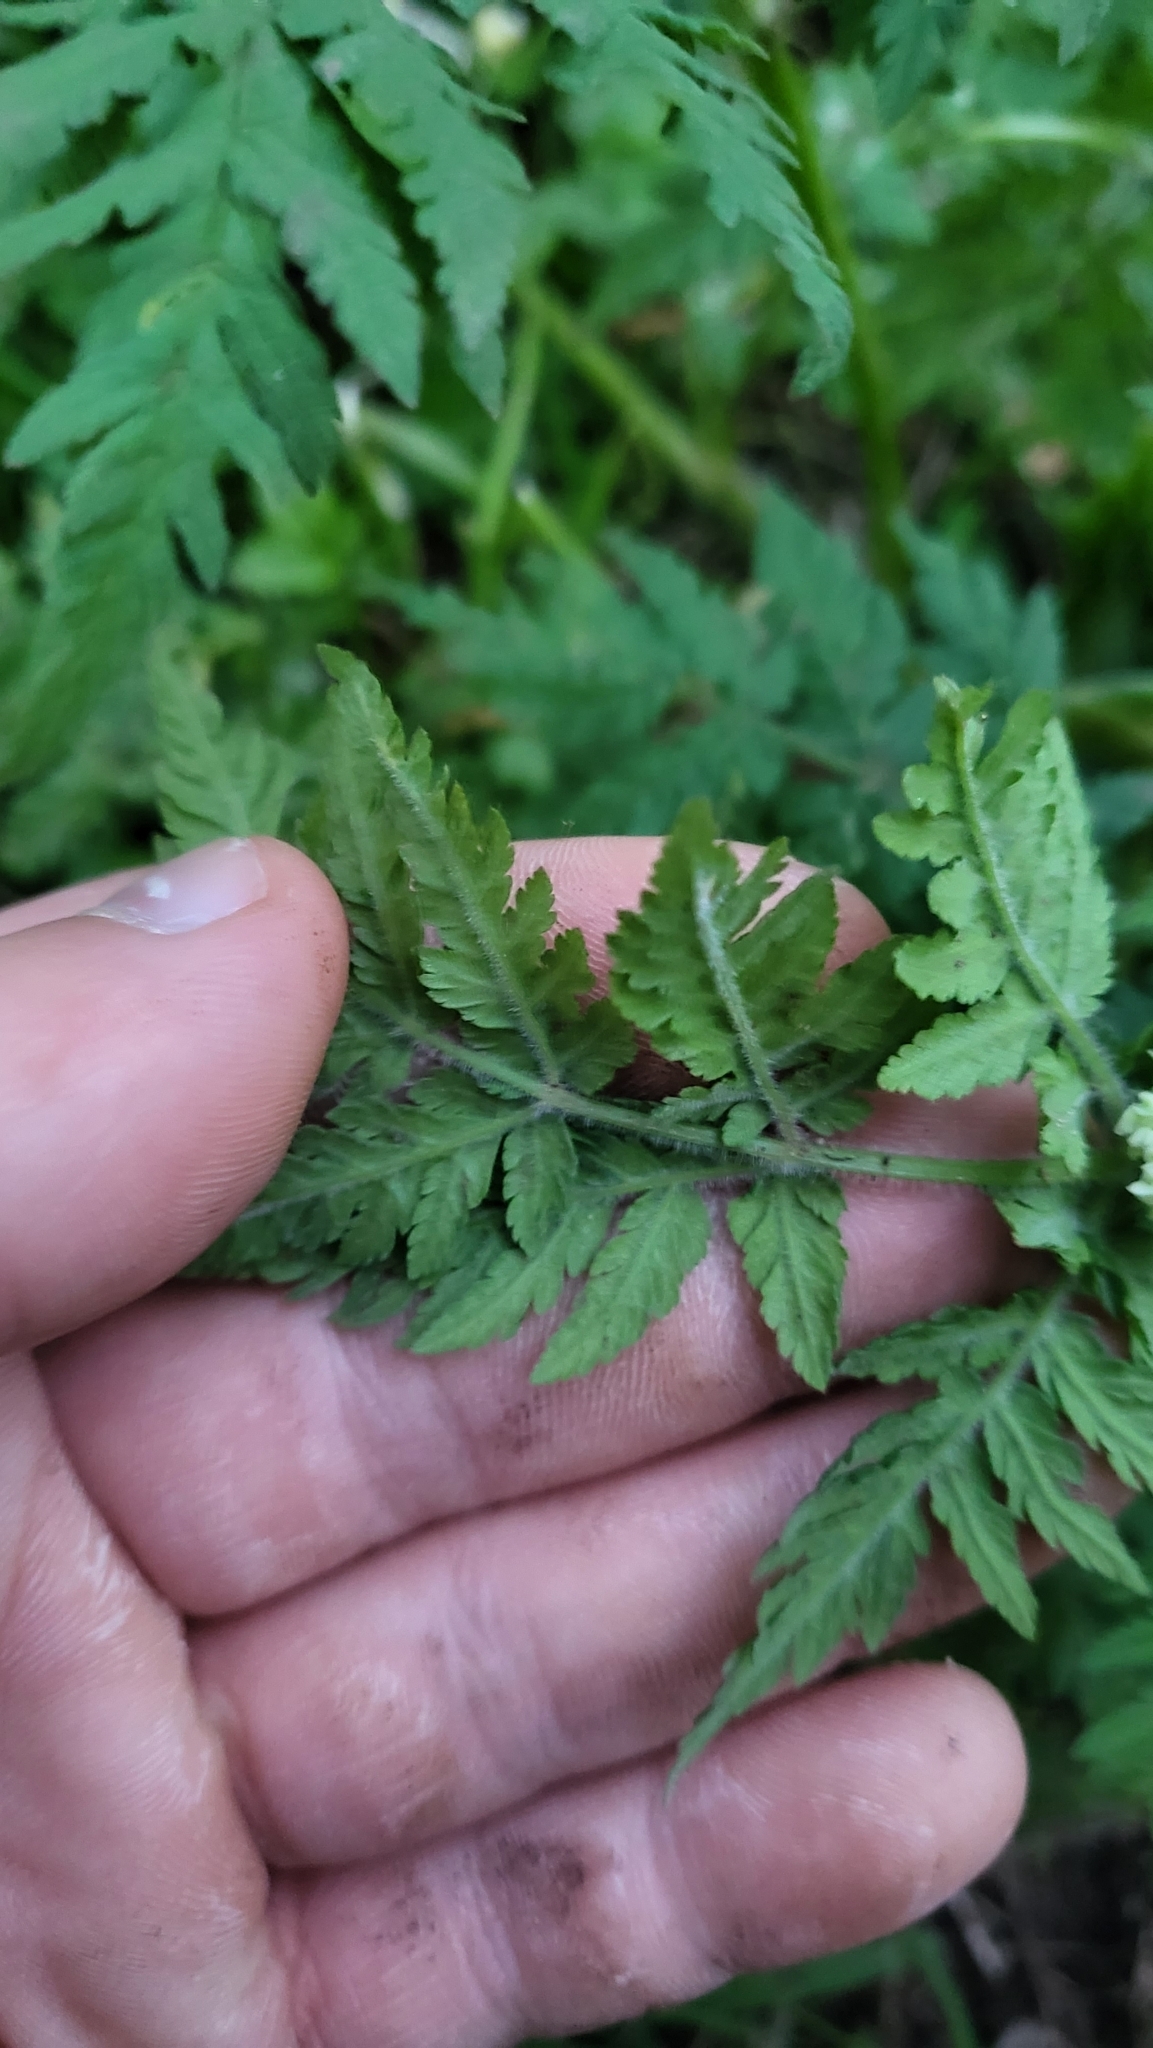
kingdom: Plantae
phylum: Tracheophyta
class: Magnoliopsida
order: Apiales
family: Apiaceae
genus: Myrrhis
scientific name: Myrrhis odorata
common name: Sweet cicely
